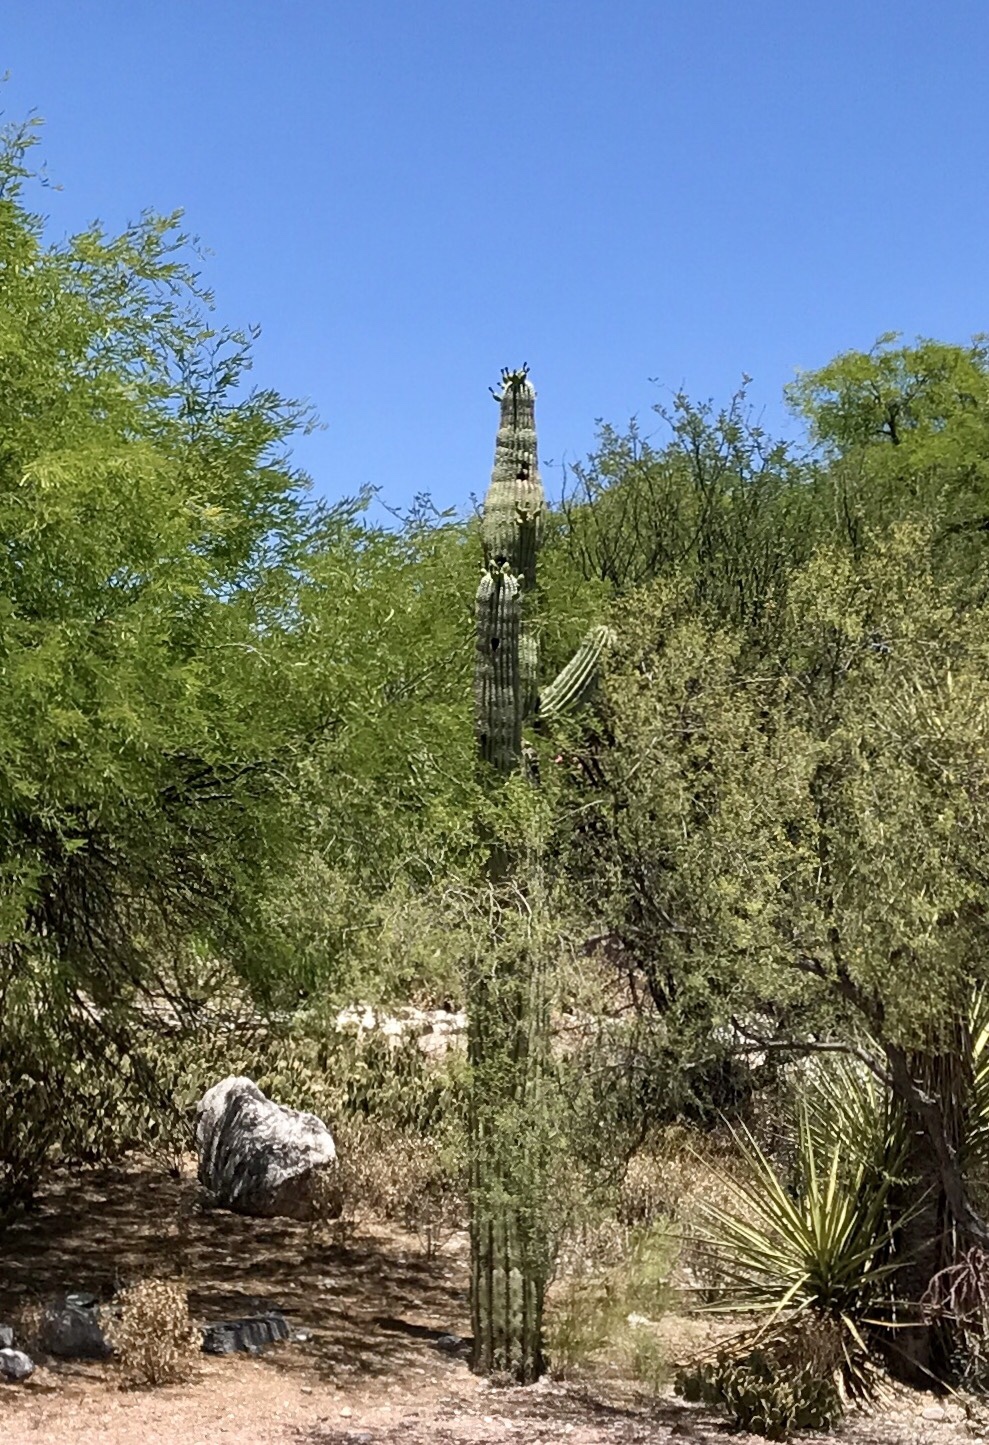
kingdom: Plantae
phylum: Tracheophyta
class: Magnoliopsida
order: Caryophyllales
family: Cactaceae
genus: Carnegiea
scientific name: Carnegiea gigantea
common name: Saguaro
